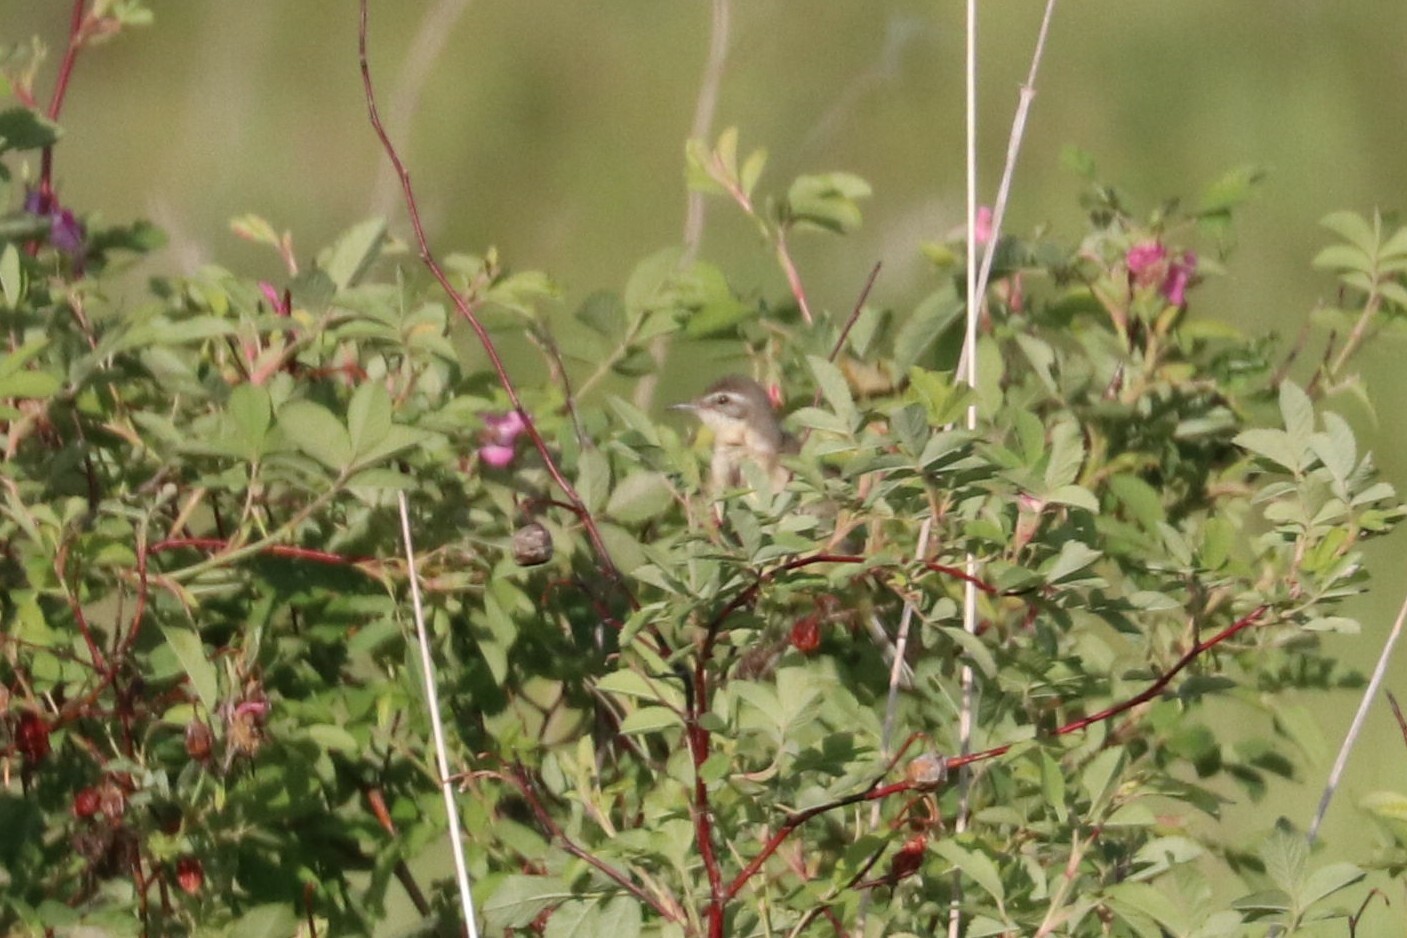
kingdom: Animalia
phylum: Chordata
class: Aves
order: Passeriformes
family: Motacillidae
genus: Motacilla
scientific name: Motacilla flava
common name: Western yellow wagtail
